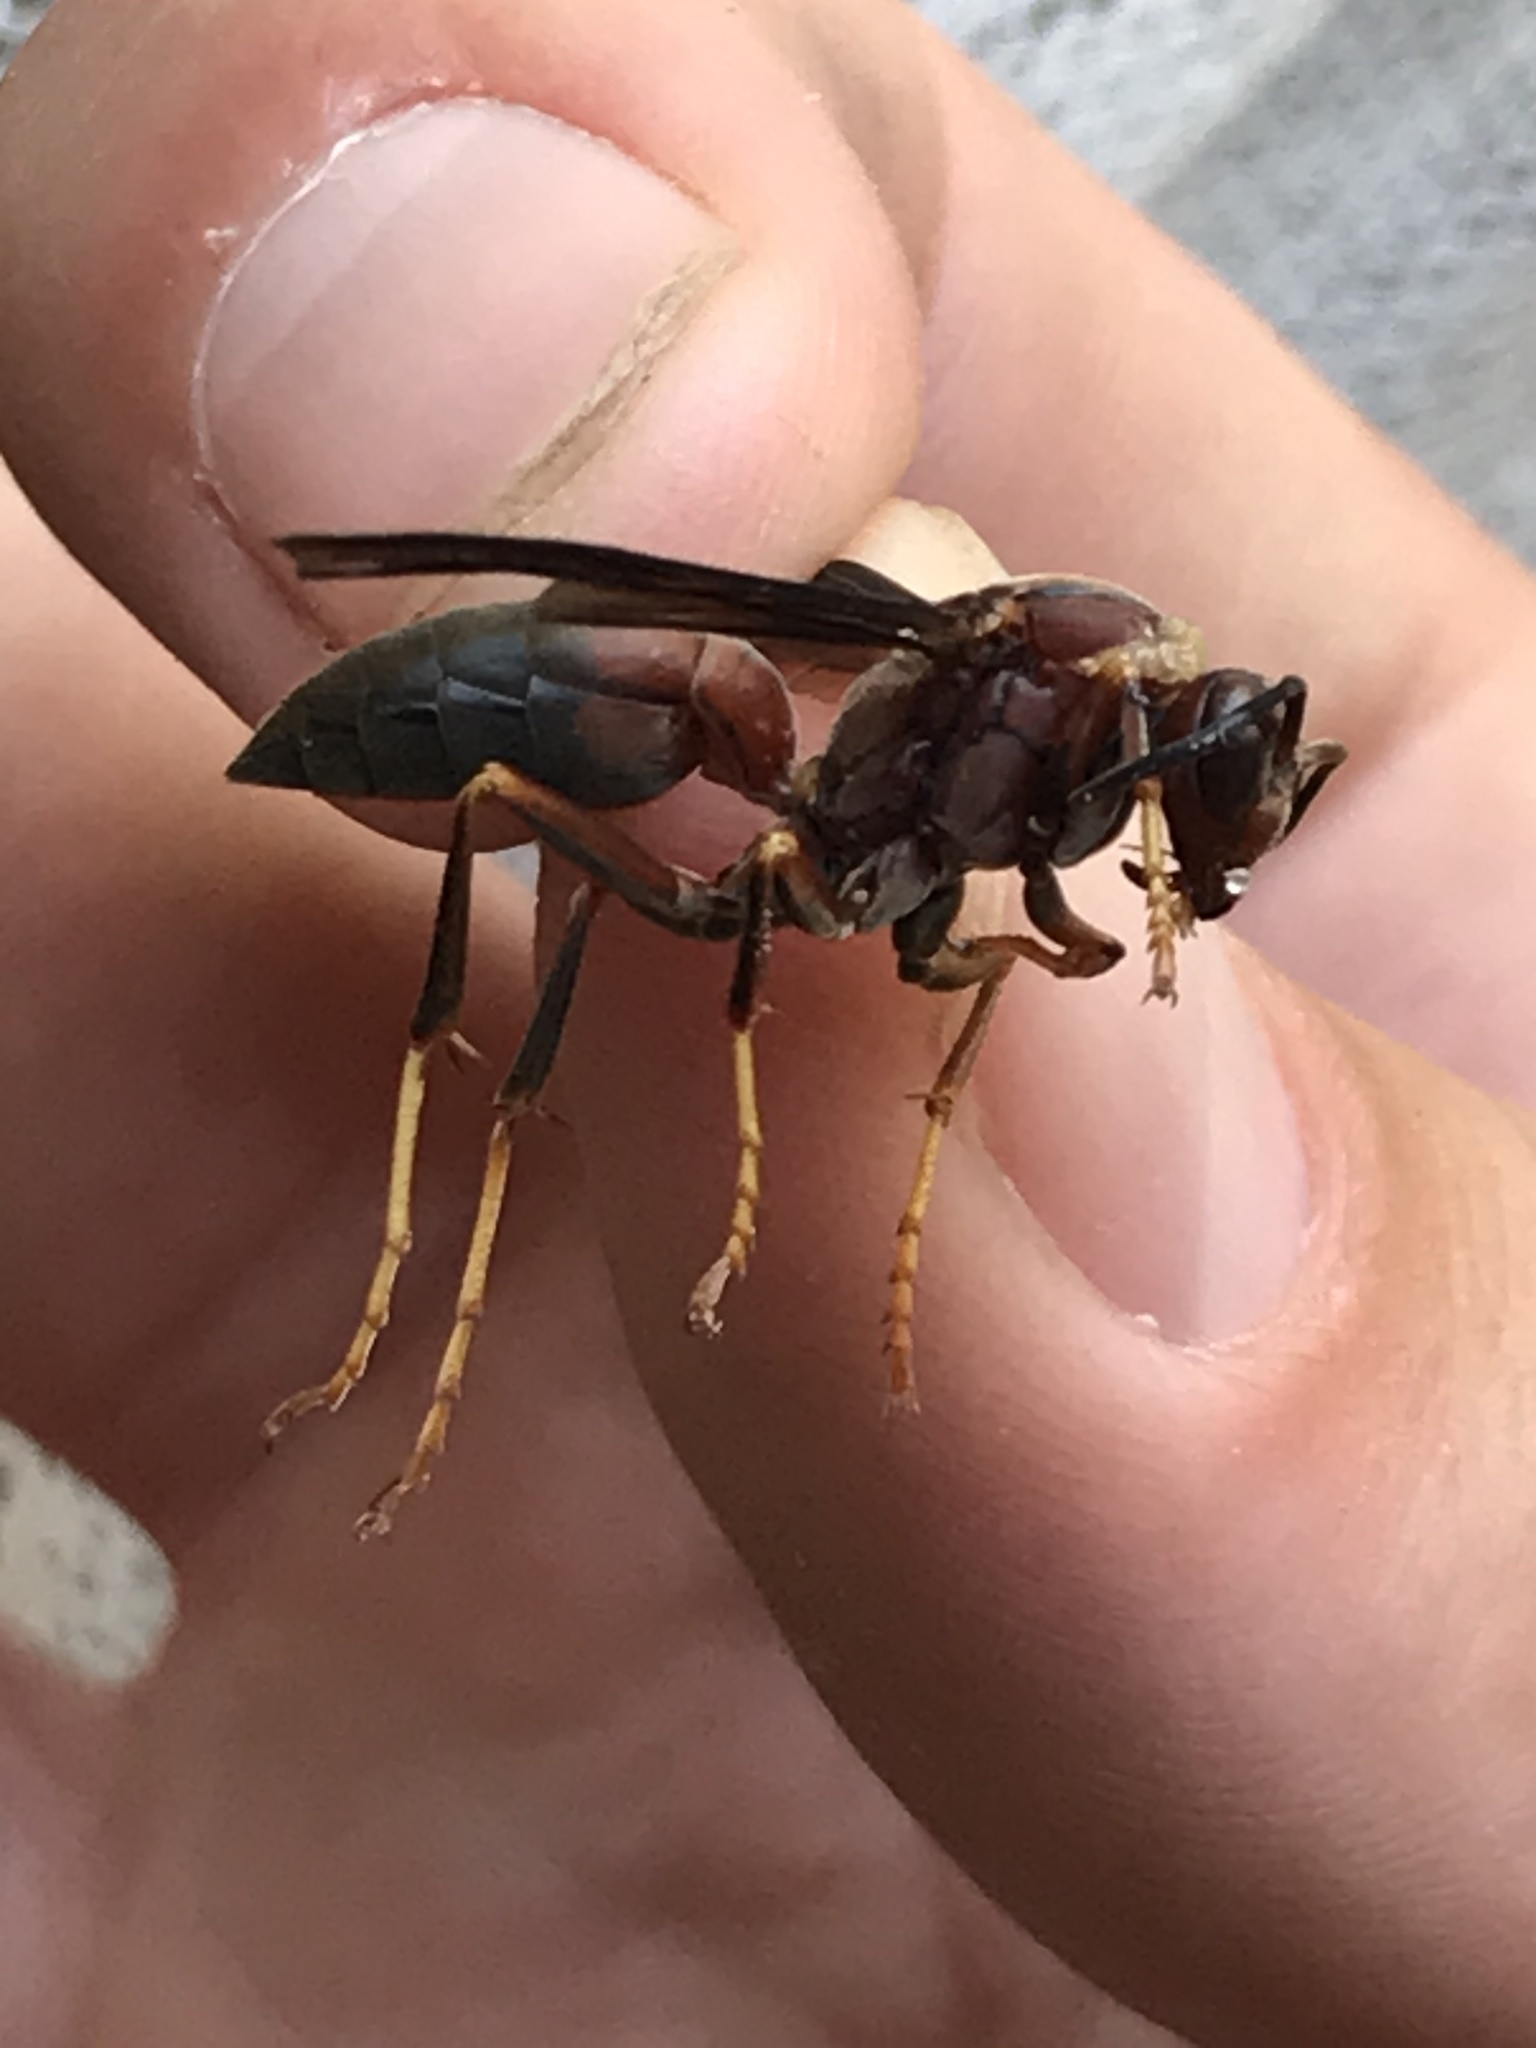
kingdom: Animalia
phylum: Arthropoda
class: Insecta
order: Hymenoptera
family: Eumenidae
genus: Polistes
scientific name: Polistes metricus
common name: Metric paper wasp
